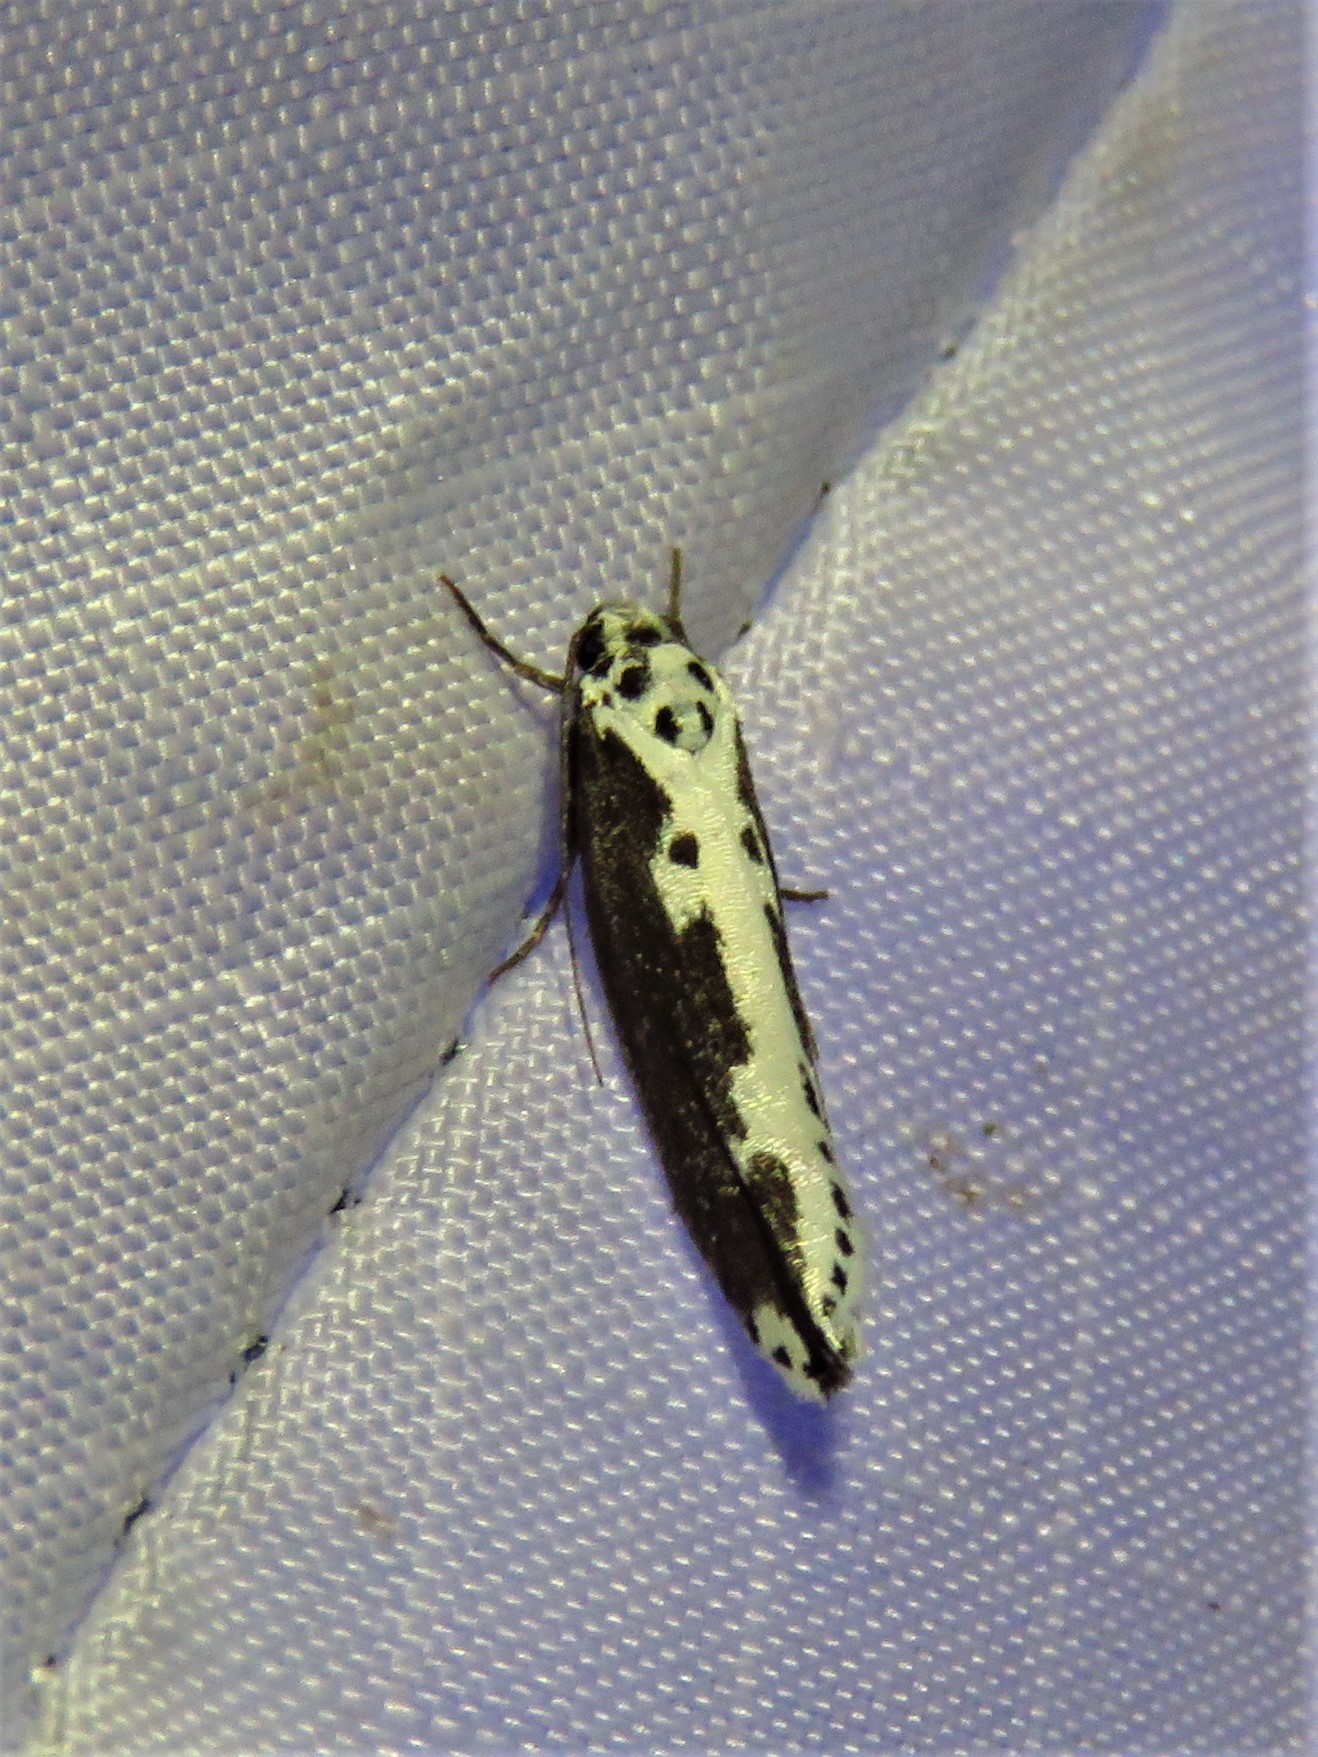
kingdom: Animalia
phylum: Arthropoda
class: Insecta
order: Lepidoptera
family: Ethmiidae
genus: Ethmia
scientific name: Ethmia semilugens
